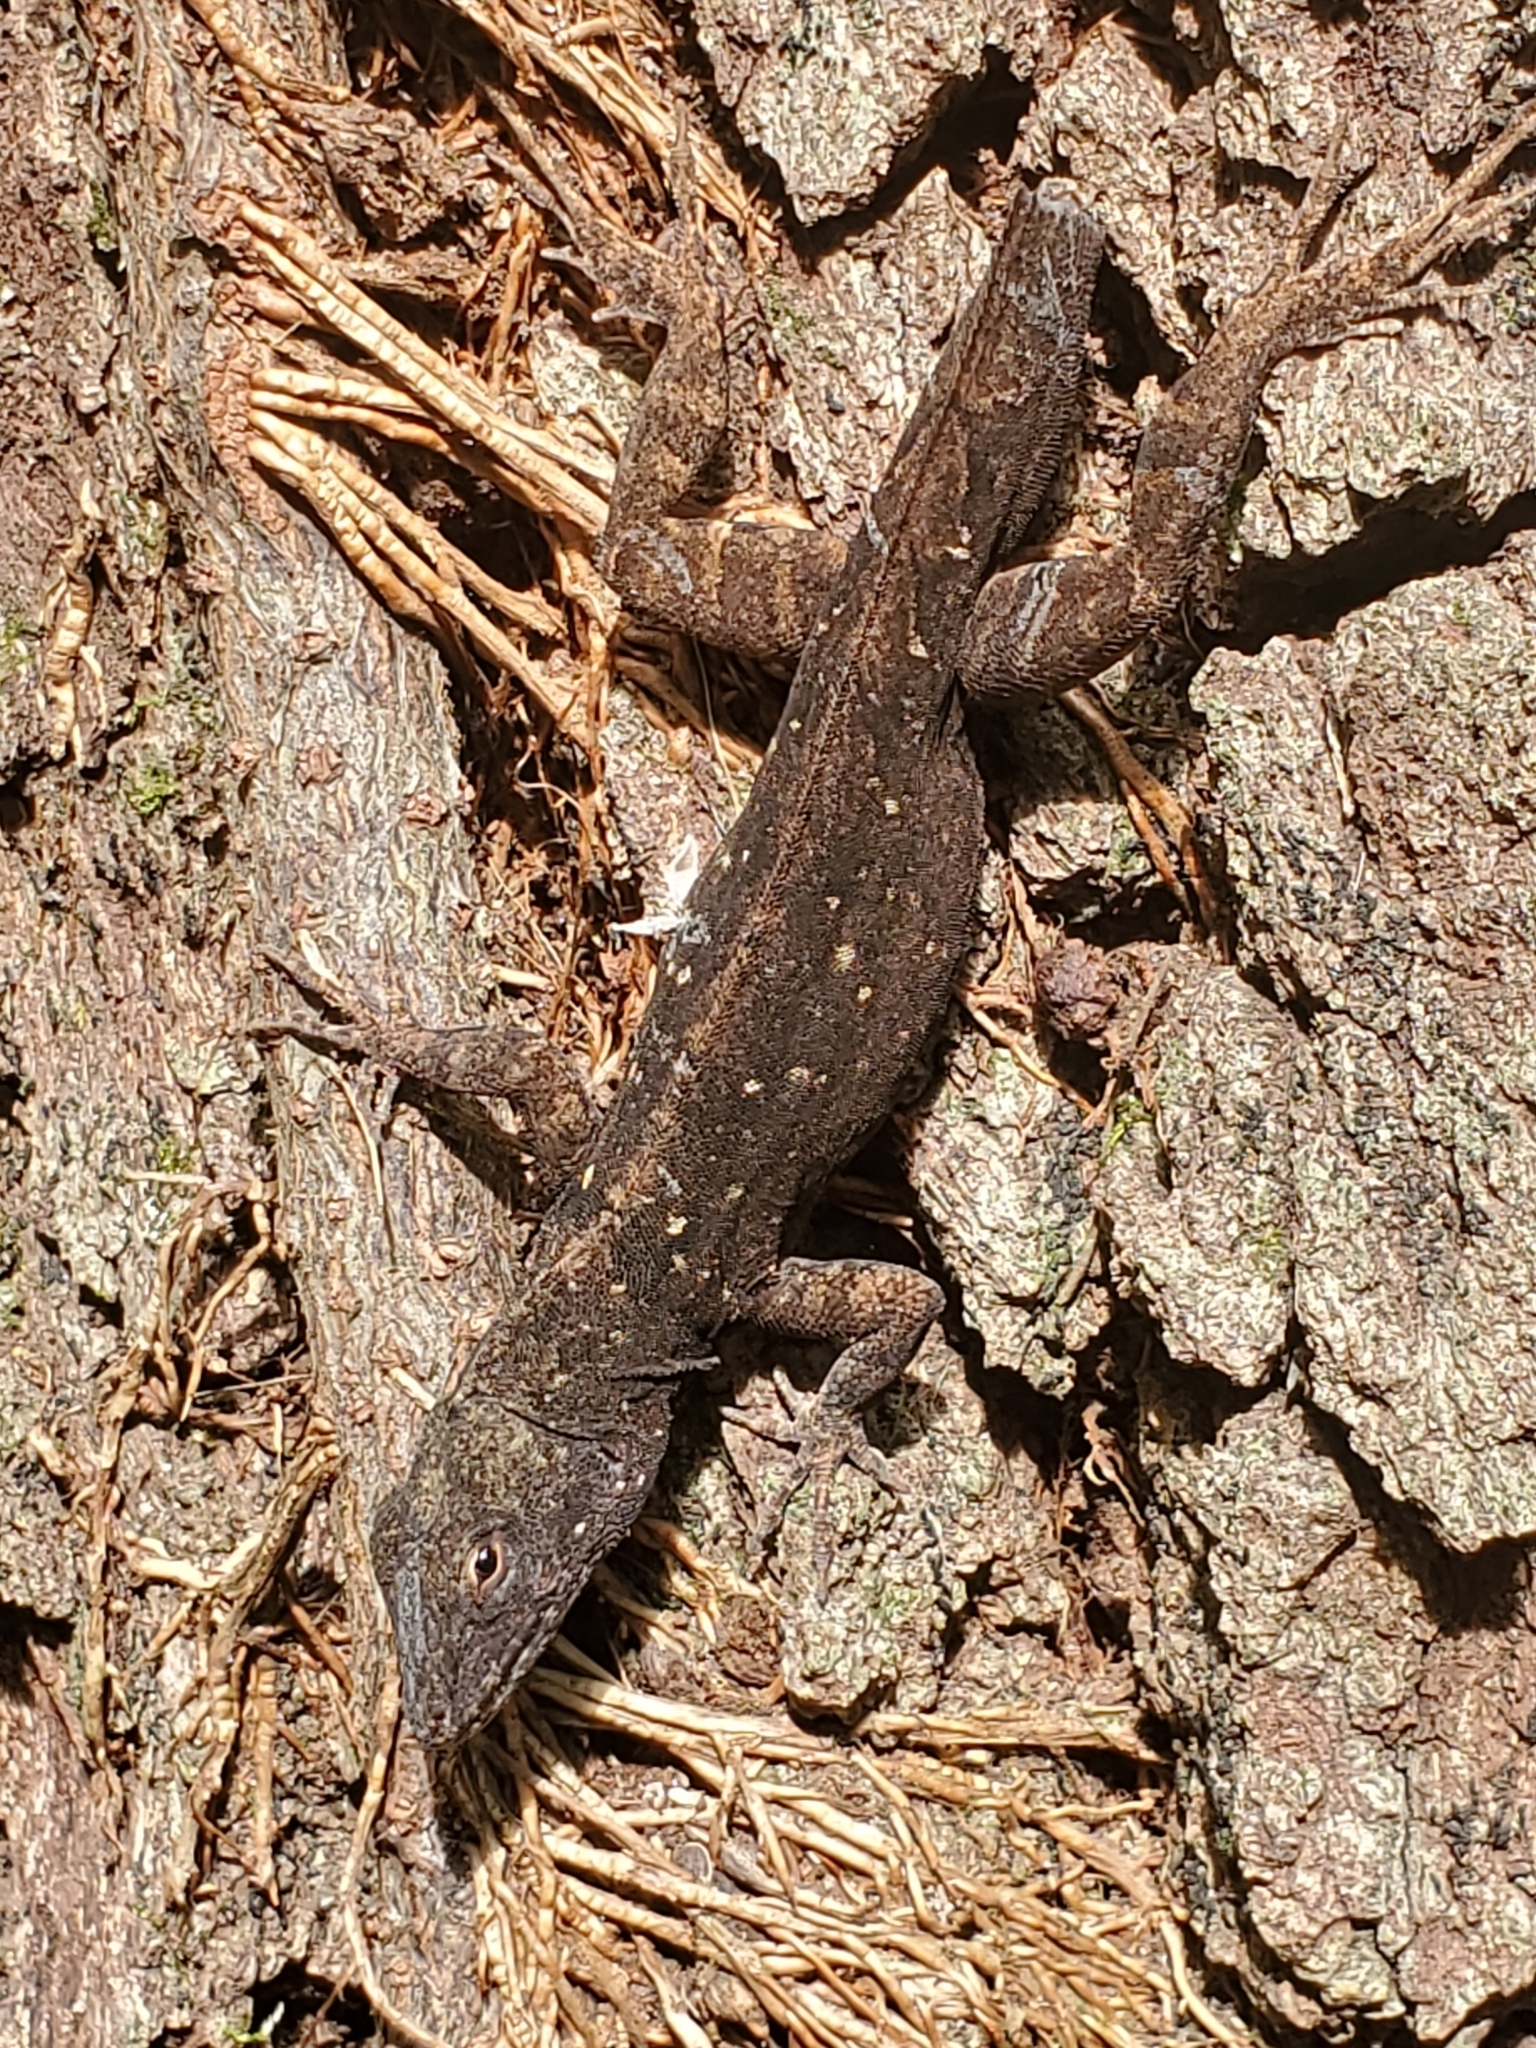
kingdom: Animalia
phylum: Chordata
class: Squamata
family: Dactyloidae
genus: Anolis
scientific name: Anolis sagrei
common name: Brown anole
